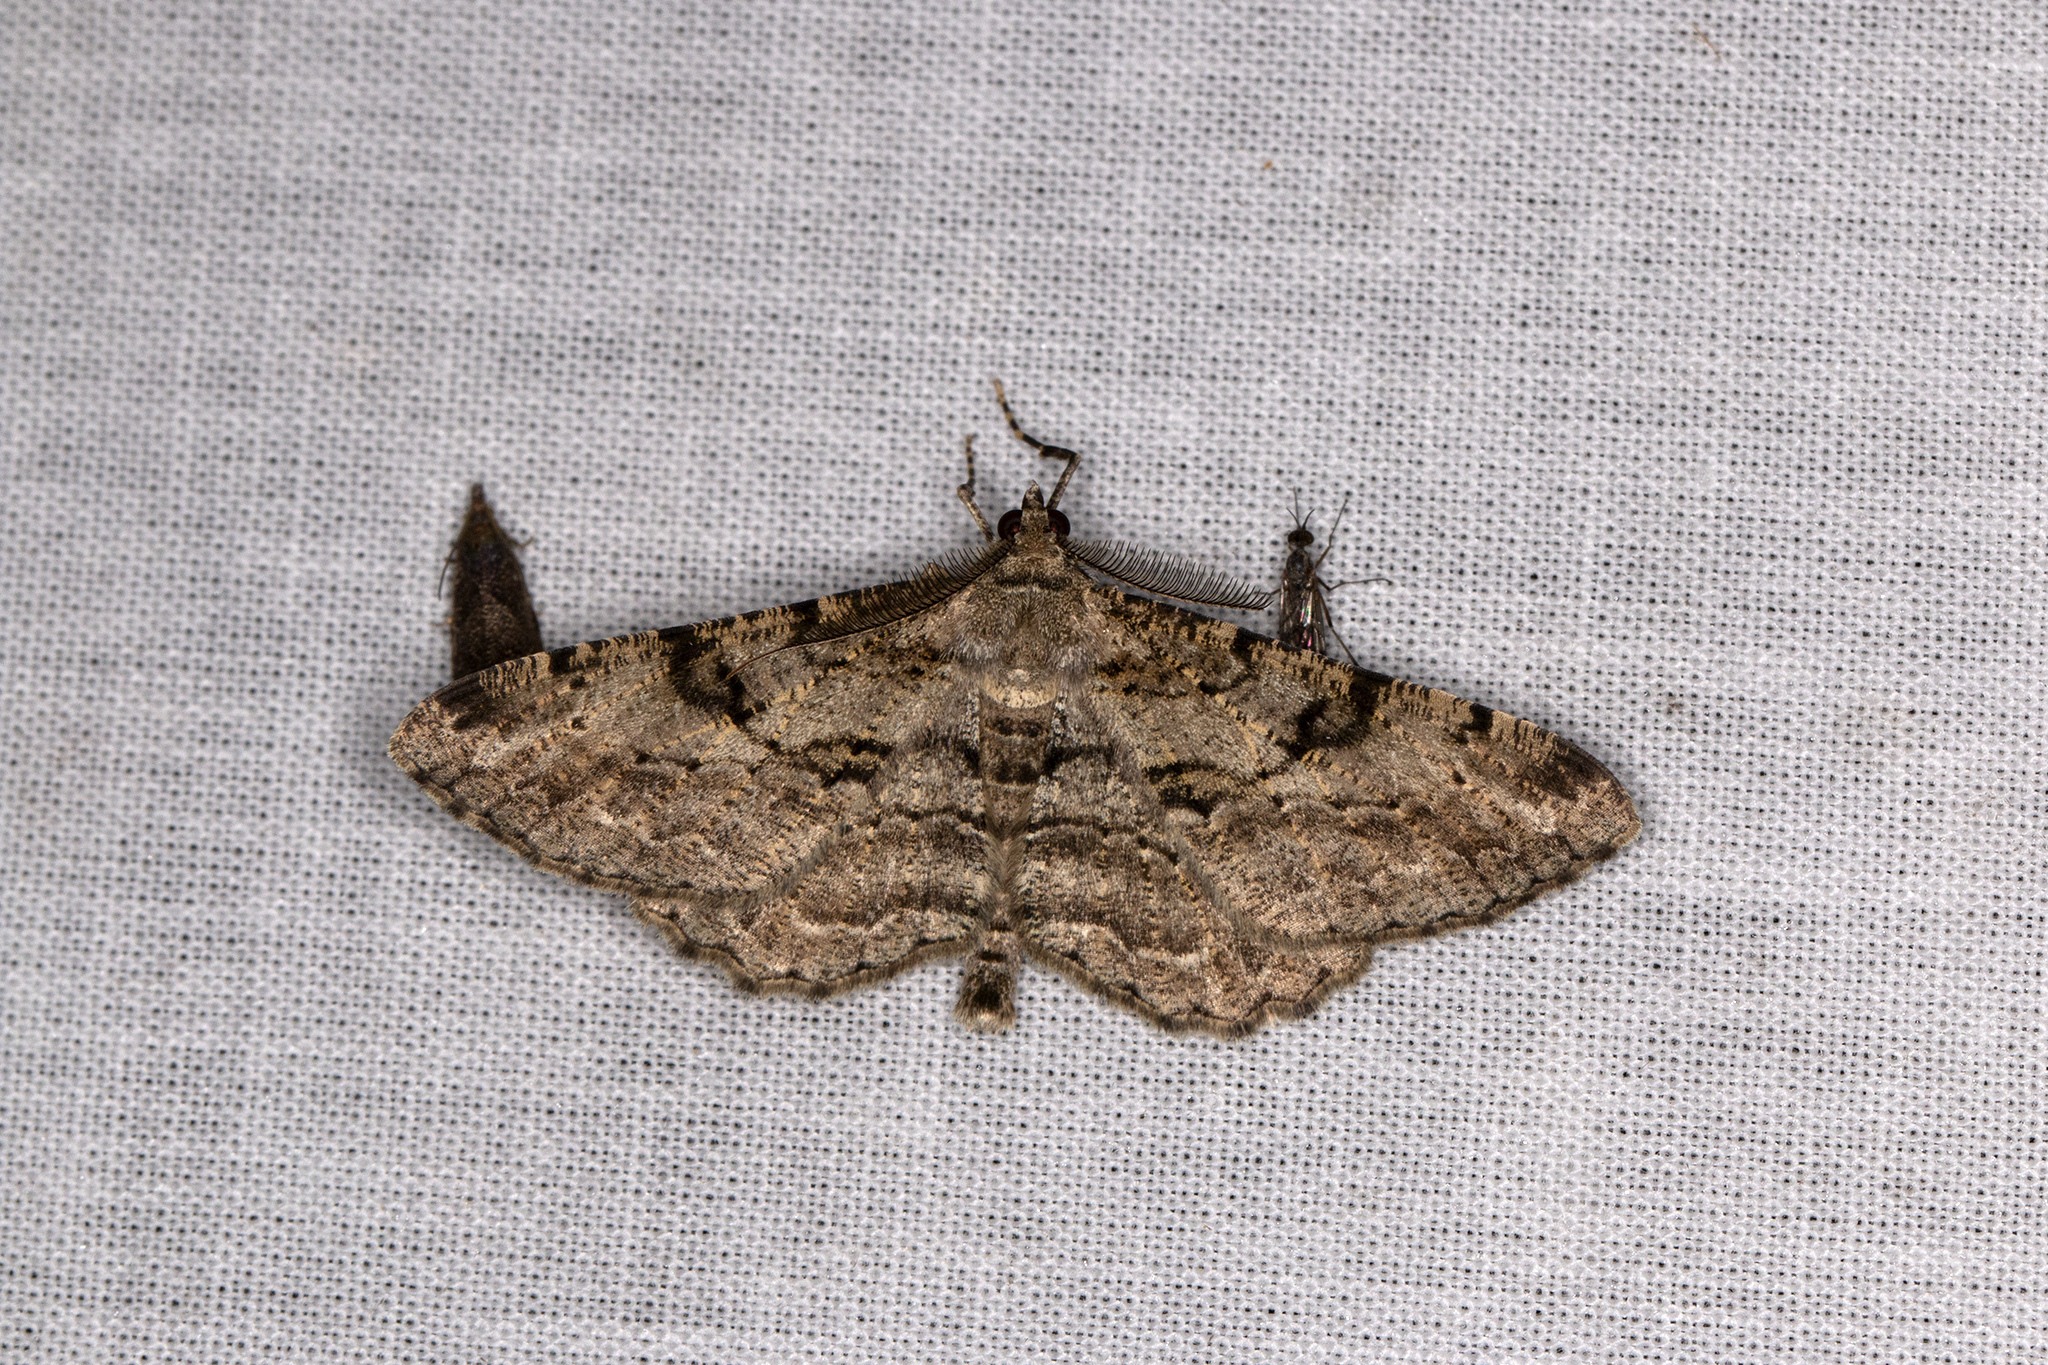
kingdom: Animalia
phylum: Arthropoda
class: Insecta
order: Lepidoptera
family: Geometridae
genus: Peribatodes
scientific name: Peribatodes rhomboidaria
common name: Willow beauty
